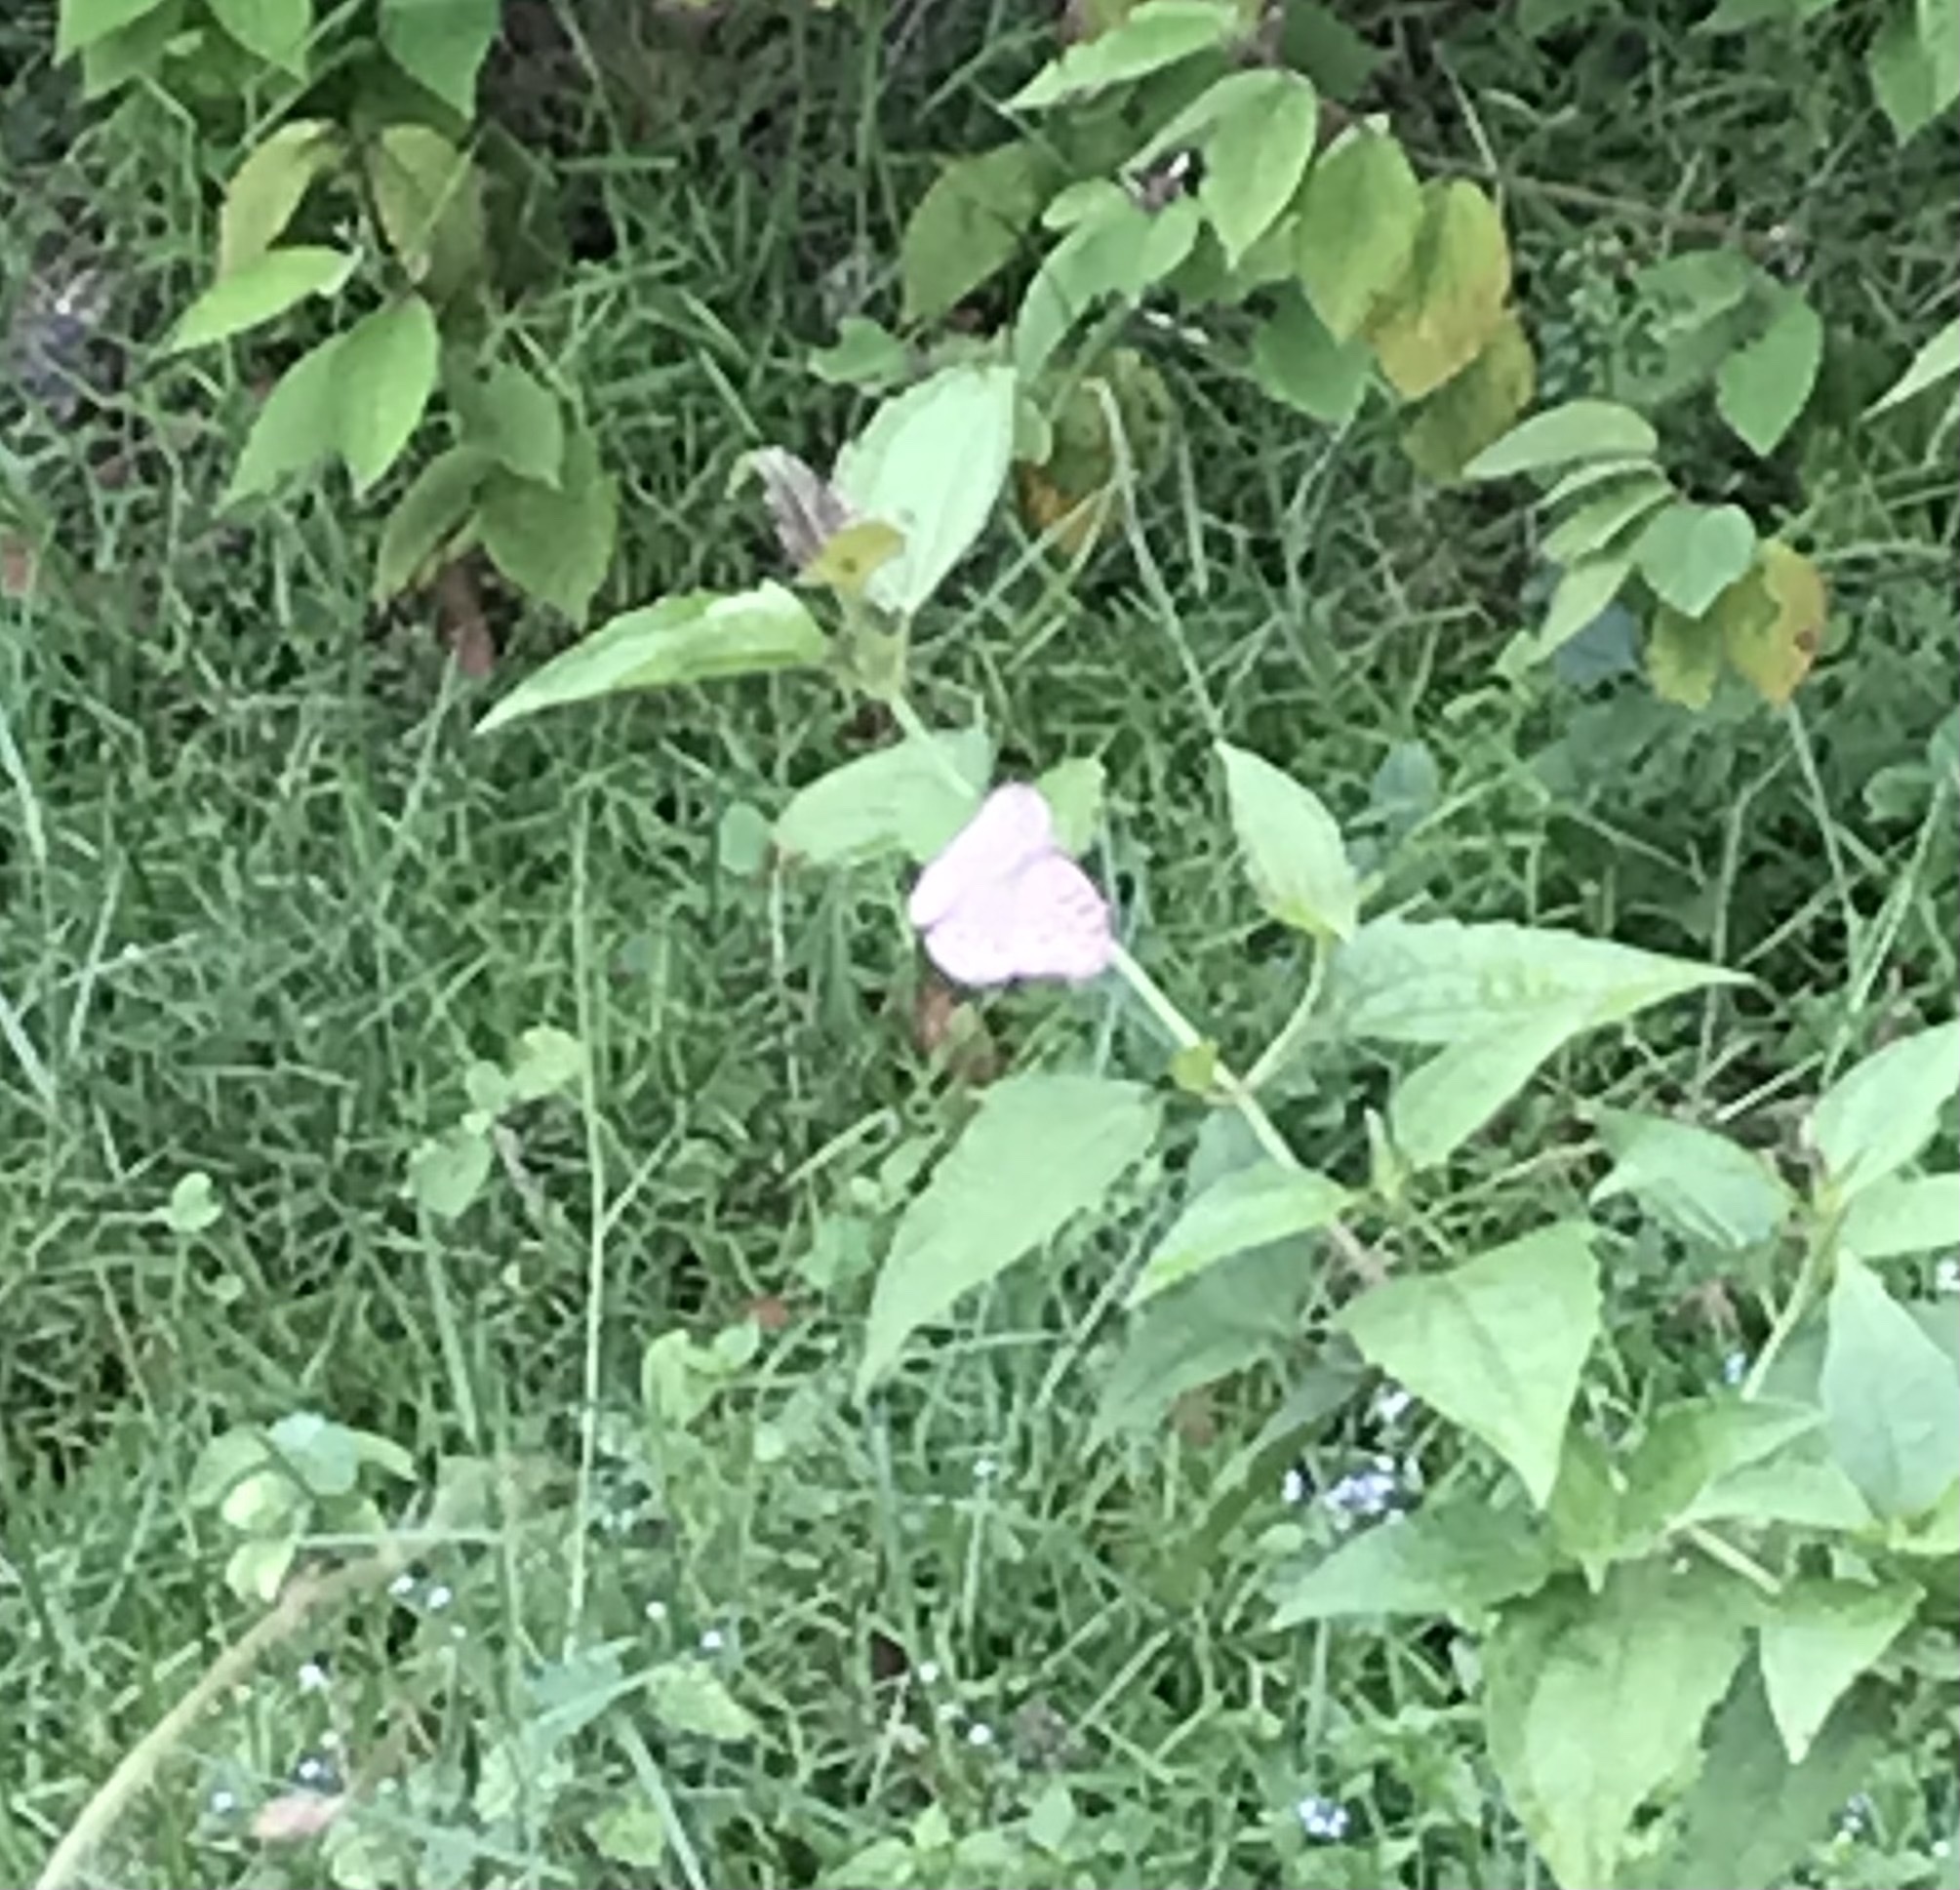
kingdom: Animalia
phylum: Arthropoda
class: Insecta
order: Lepidoptera
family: Nymphalidae
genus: Junonia
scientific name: Junonia atlites
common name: Grey pansy
